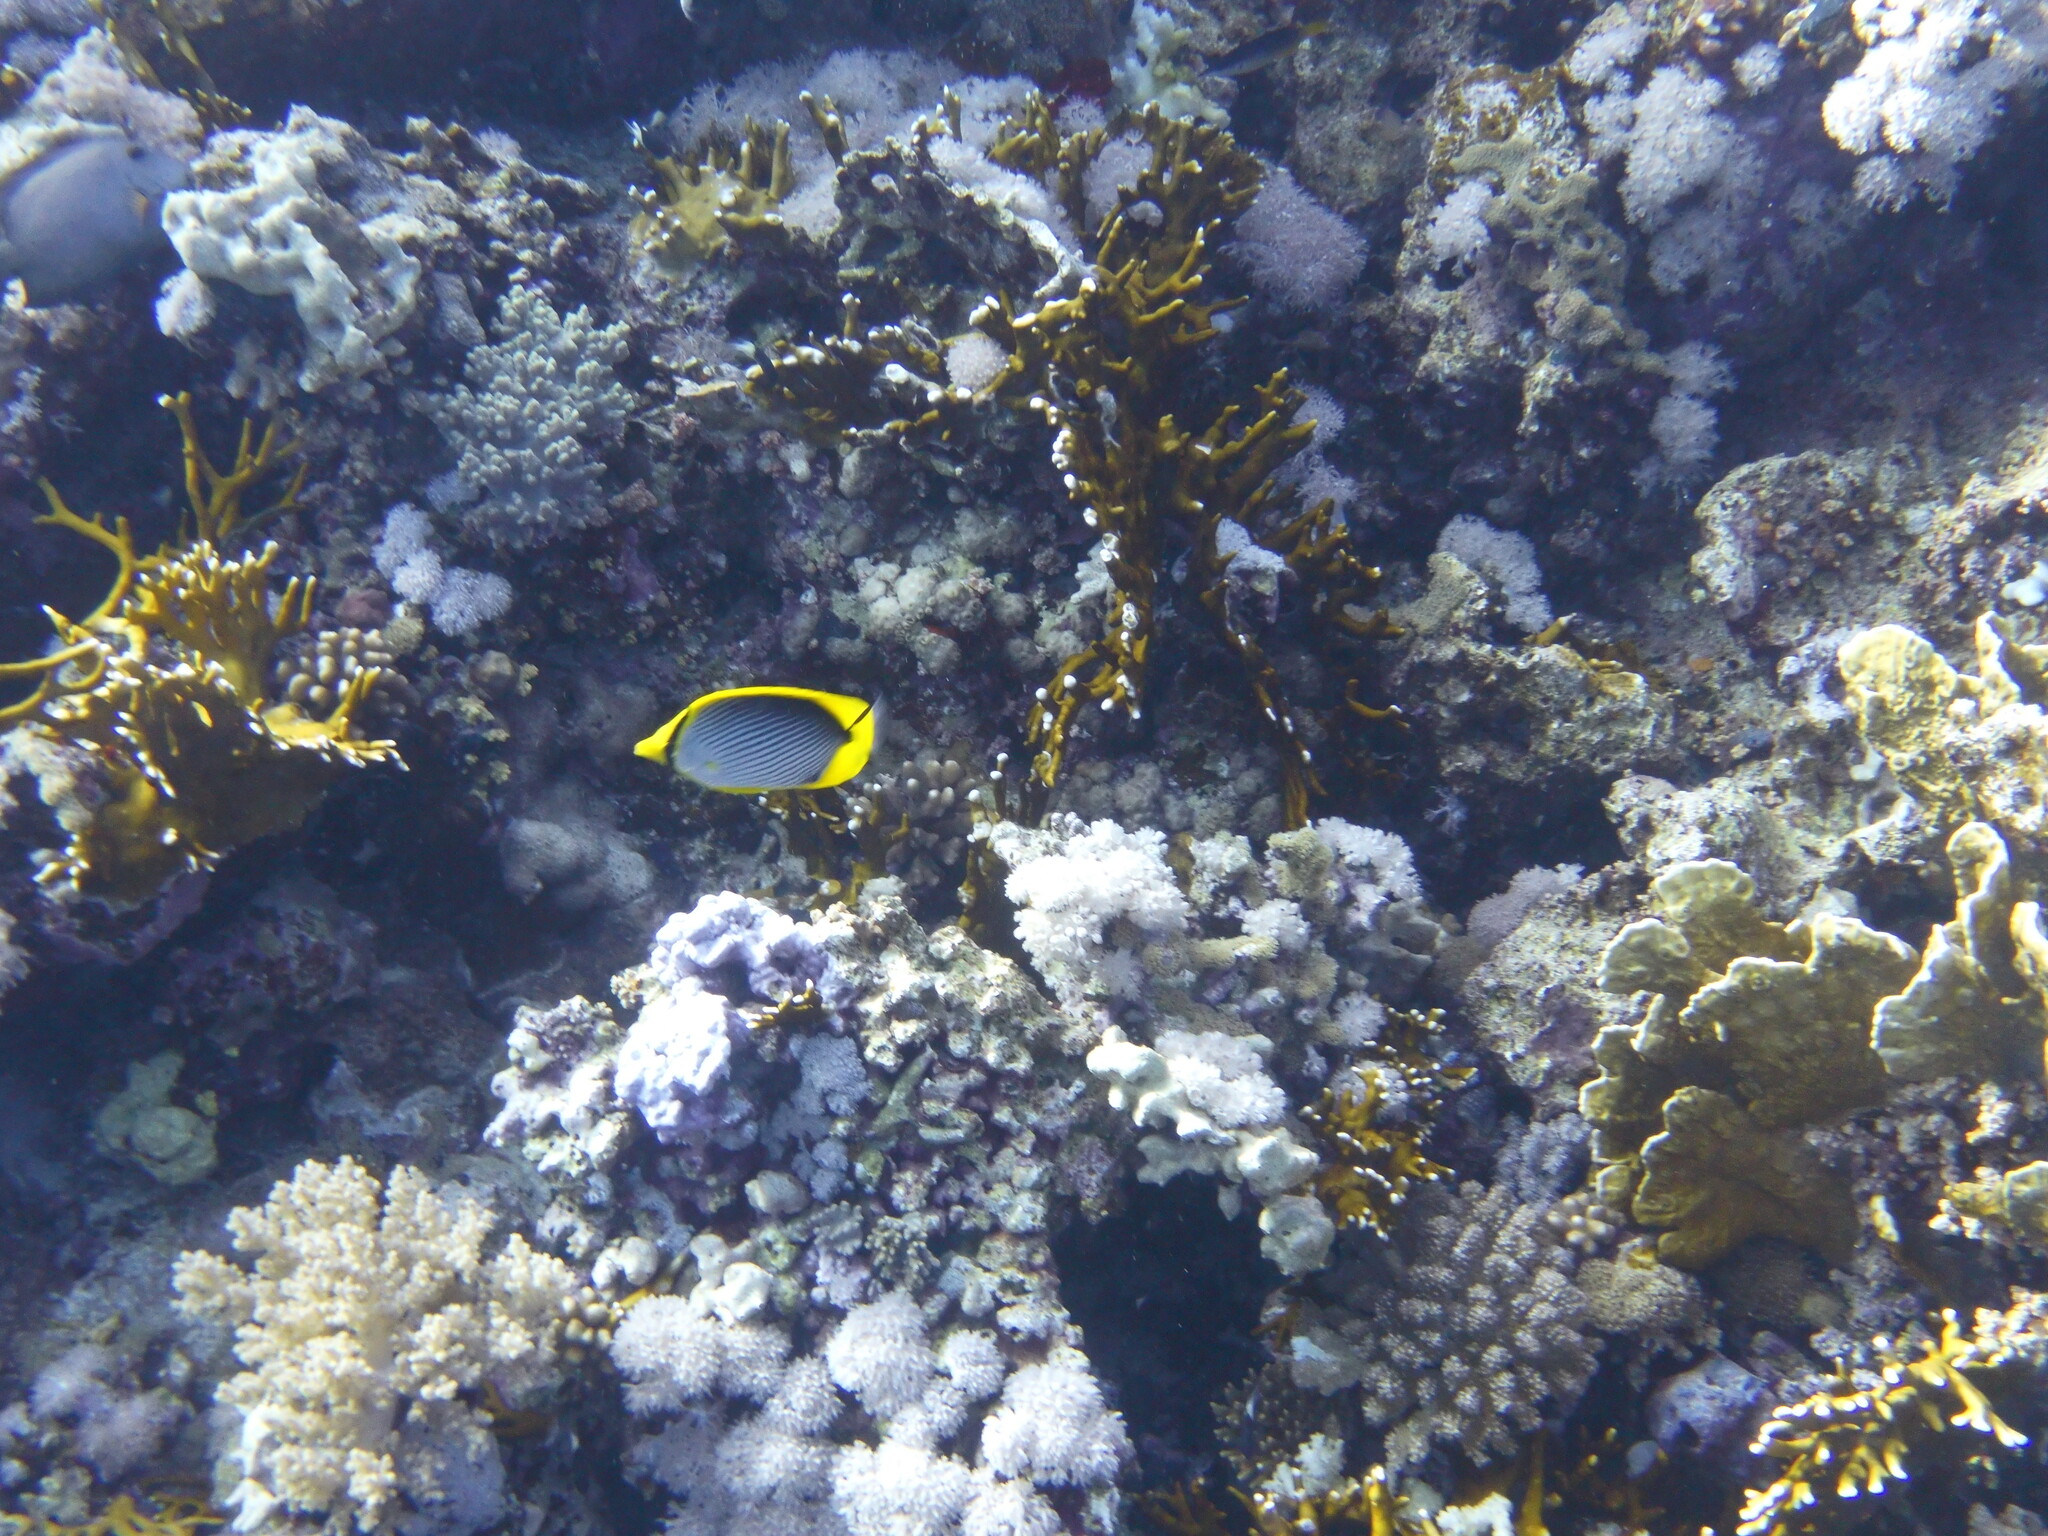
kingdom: Animalia
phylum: Chordata
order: Perciformes
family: Chaetodontidae
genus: Chaetodon
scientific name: Chaetodon melannotus
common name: Blackback butterflyfish
